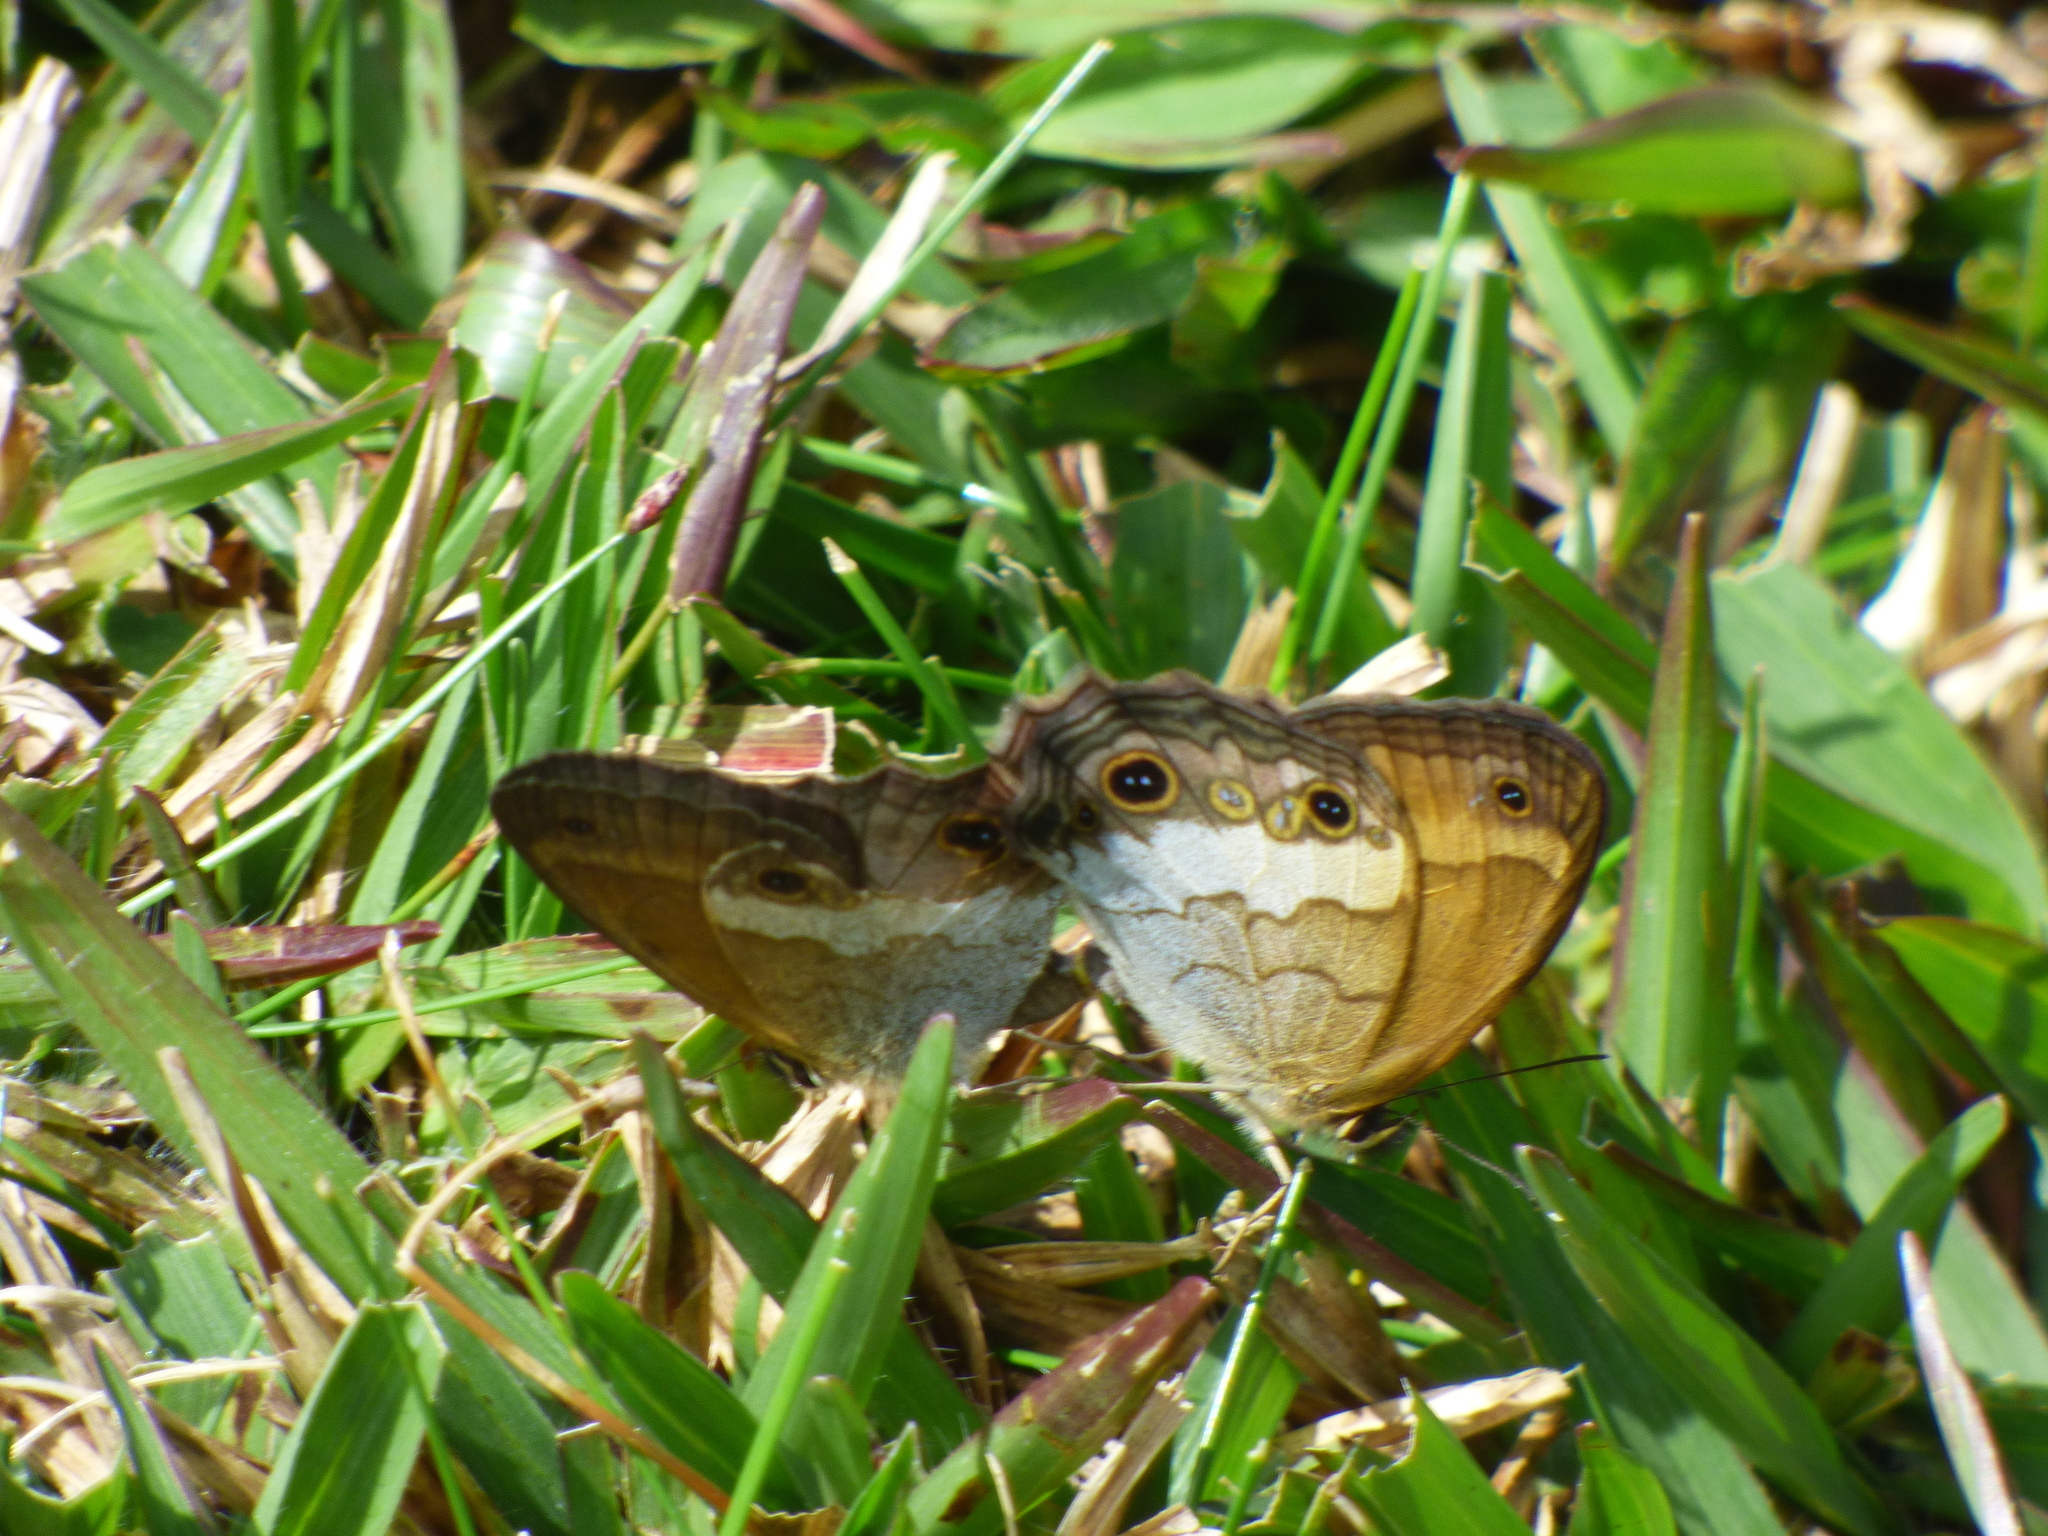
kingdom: Animalia
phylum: Arthropoda
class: Insecta
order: Lepidoptera
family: Nymphalidae
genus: Graphita
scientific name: Graphita griphe
